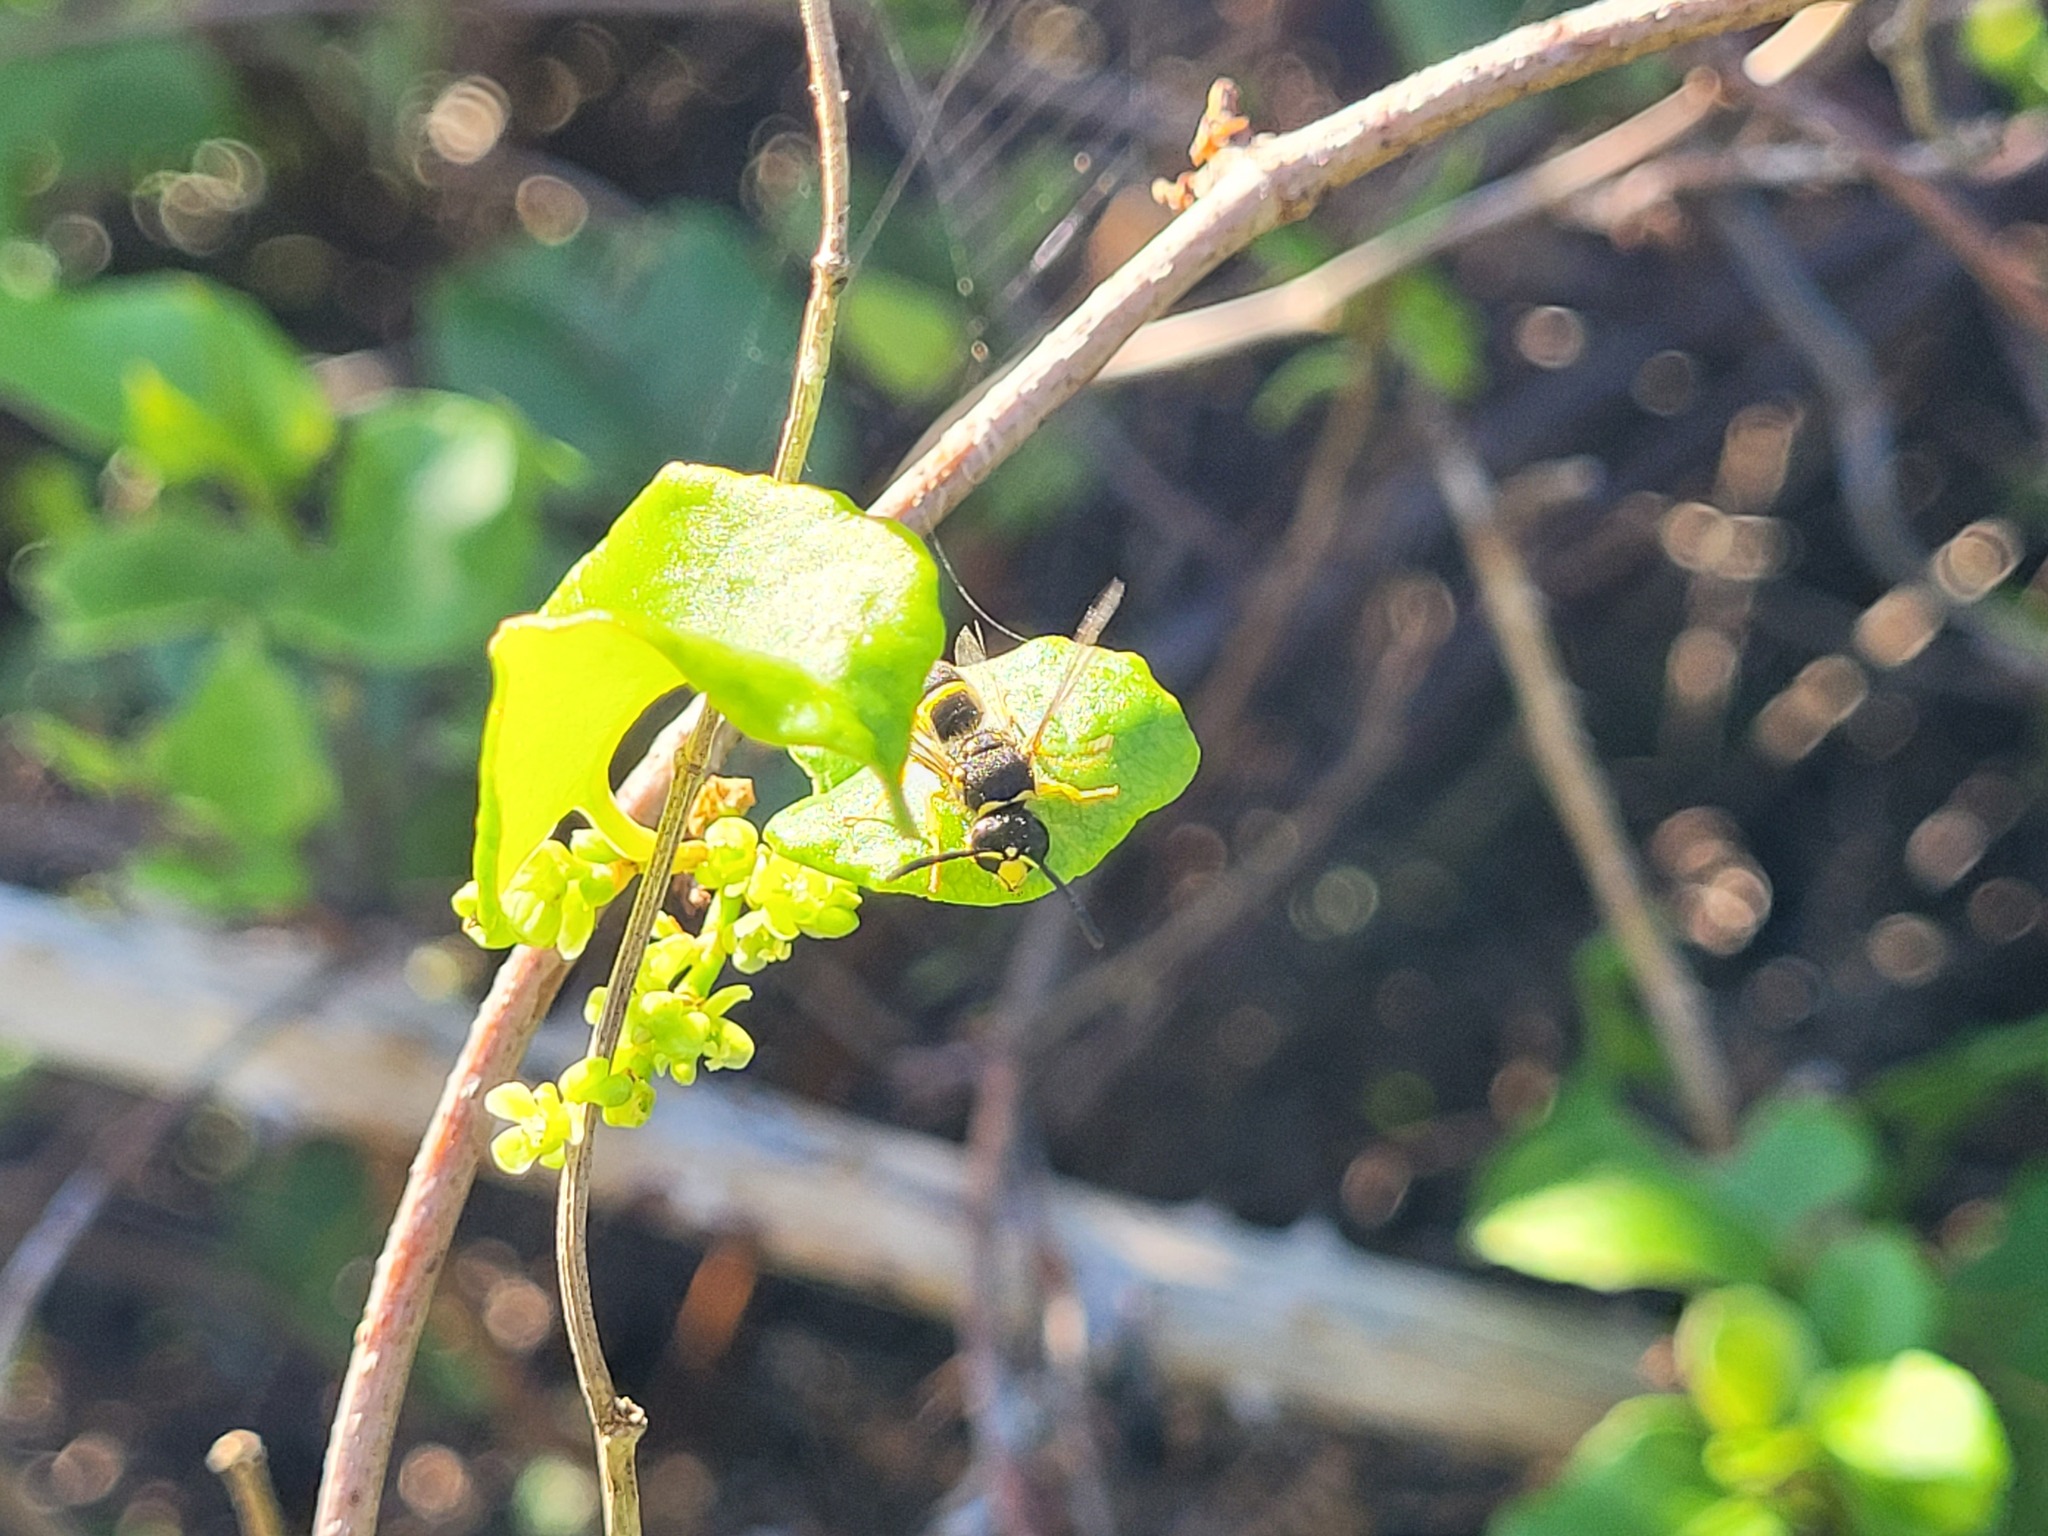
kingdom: Animalia
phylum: Arthropoda
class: Insecta
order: Hymenoptera
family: Vespidae
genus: Ancistrocerus
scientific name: Ancistrocerus gazella
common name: European tube wasp
